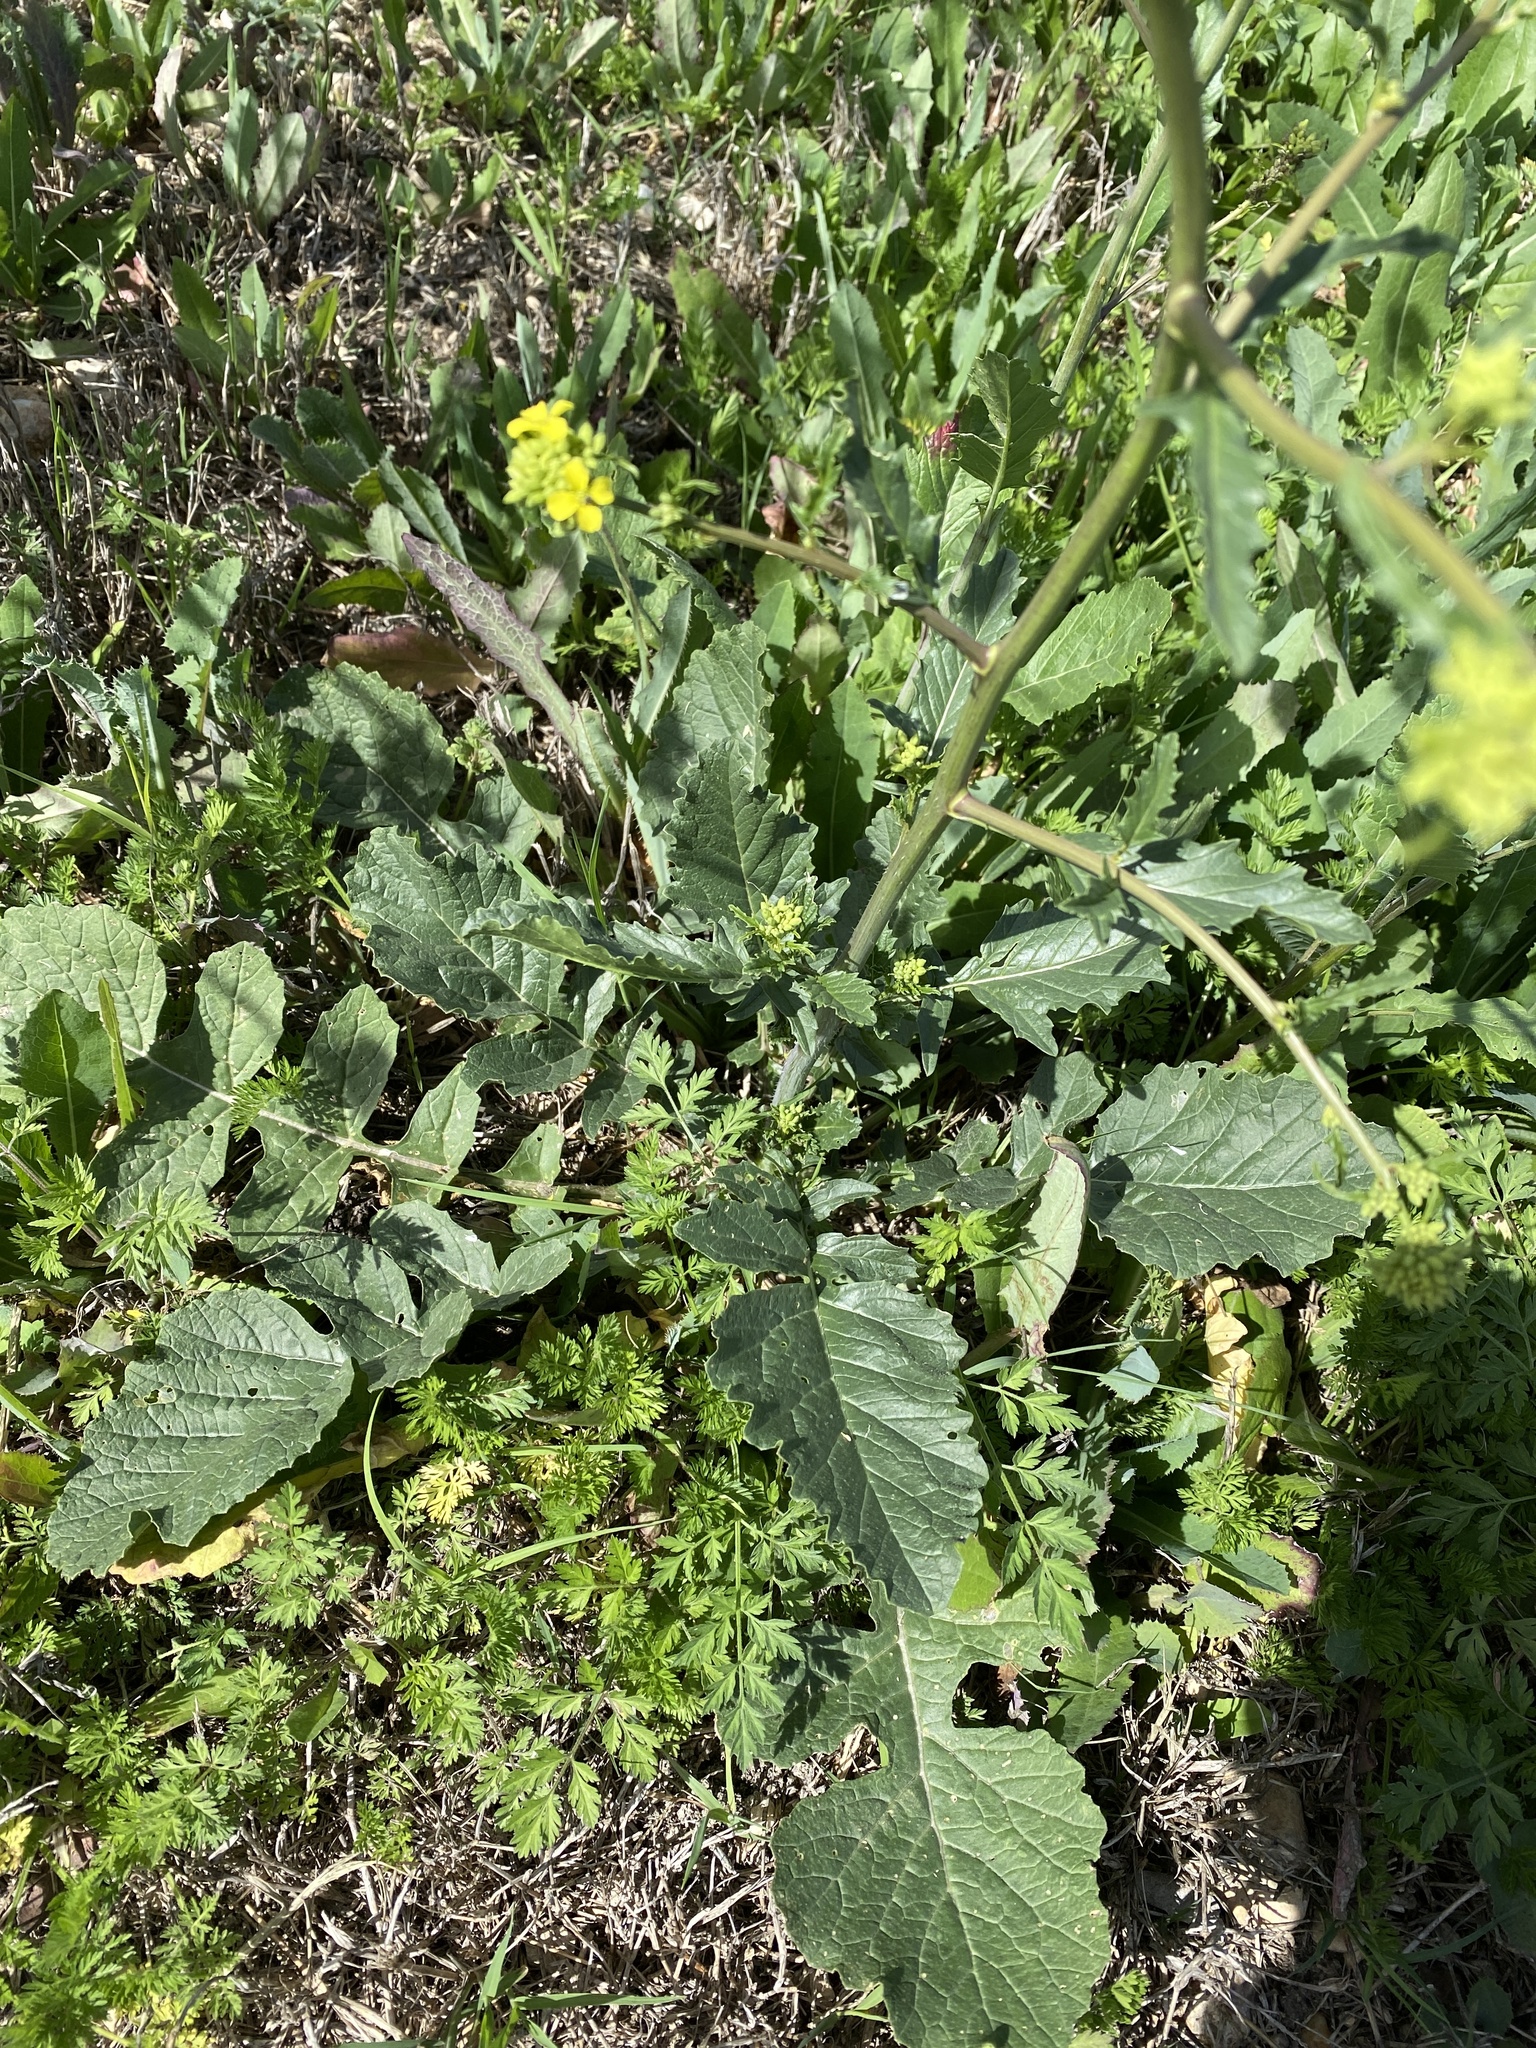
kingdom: Plantae
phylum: Tracheophyta
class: Magnoliopsida
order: Brassicales
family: Brassicaceae
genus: Rapistrum
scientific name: Rapistrum rugosum
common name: Annual bastardcabbage
